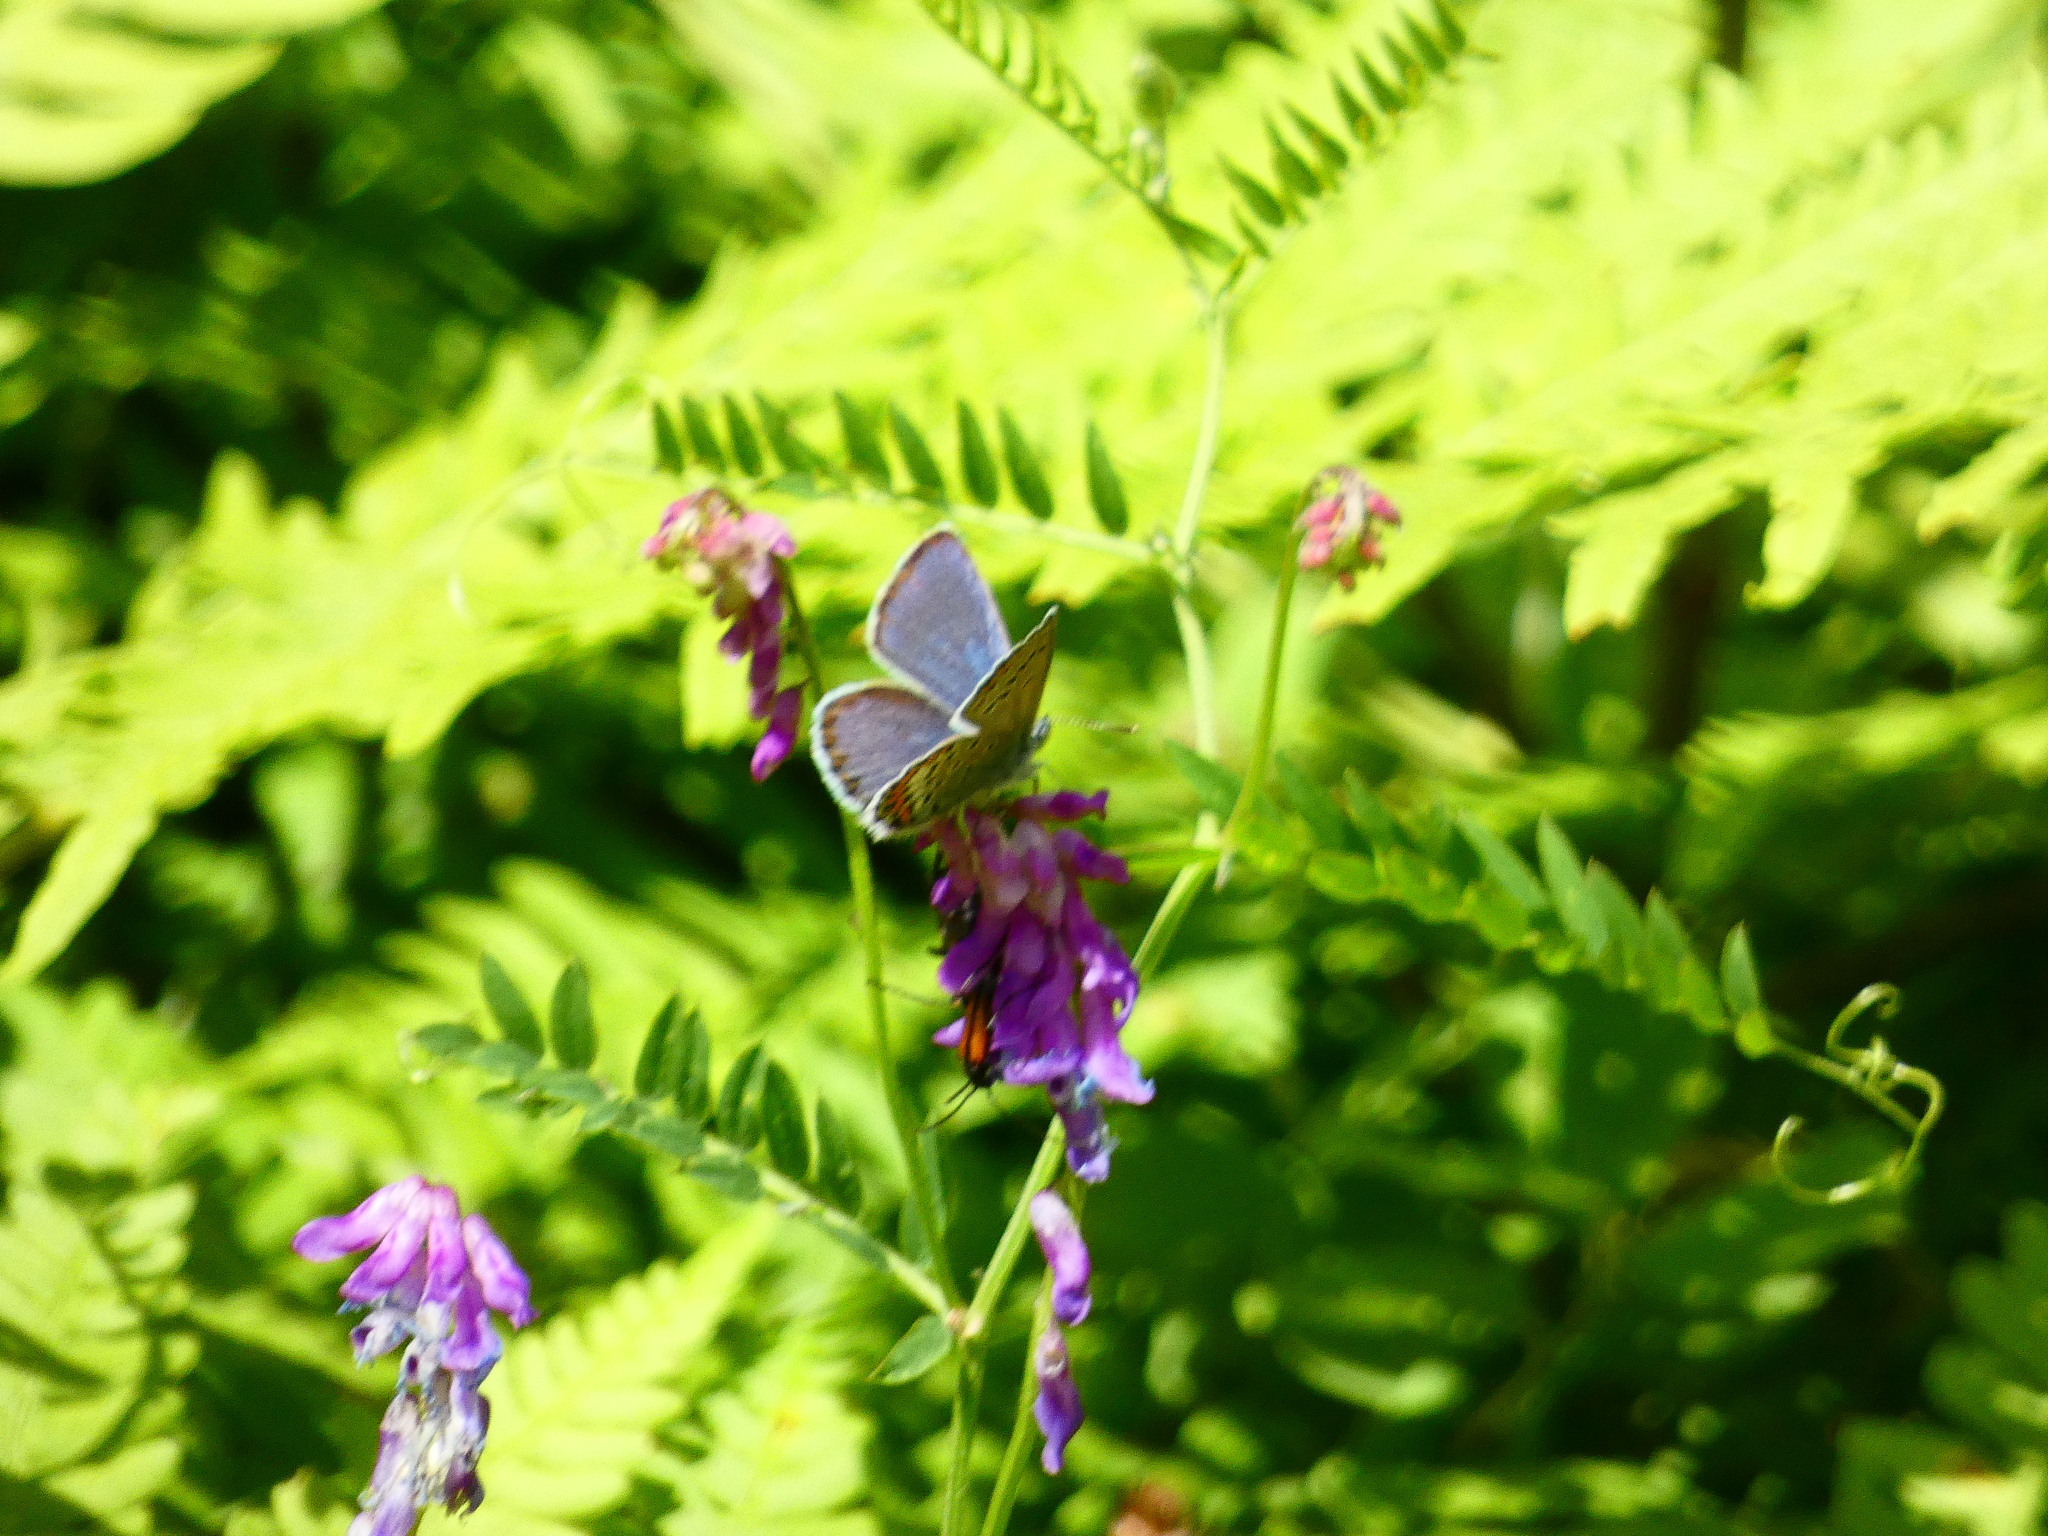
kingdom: Animalia
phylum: Arthropoda
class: Insecta
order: Lepidoptera
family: Lycaenidae
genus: Lycaeides
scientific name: Lycaeides idas
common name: Northern blue
